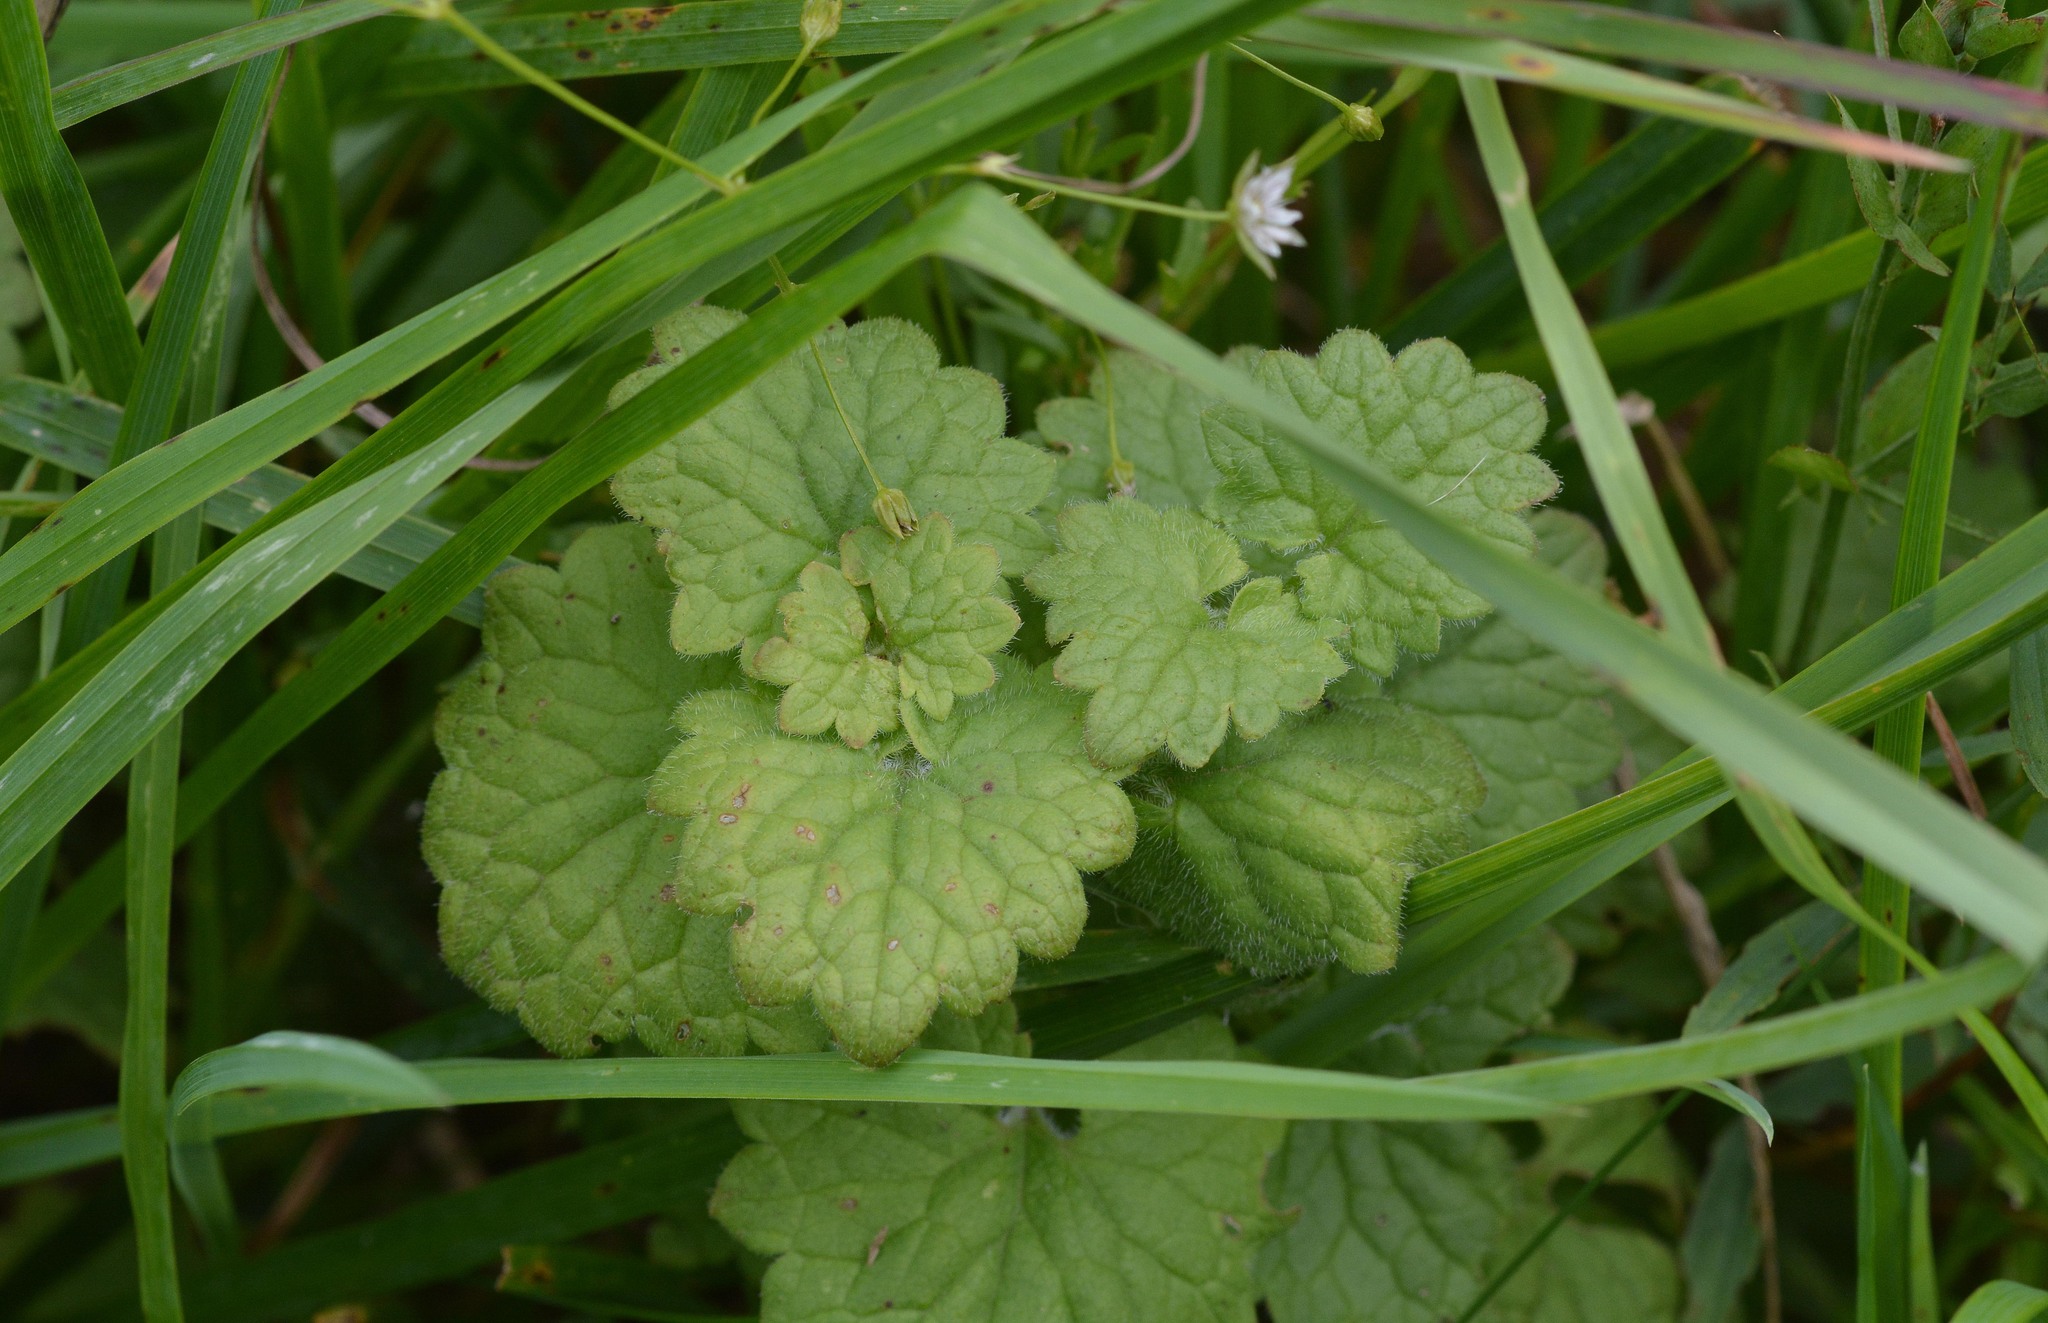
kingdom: Plantae
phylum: Tracheophyta
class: Magnoliopsida
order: Lamiales
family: Lamiaceae
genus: Glechoma
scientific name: Glechoma hederacea
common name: Ground ivy
